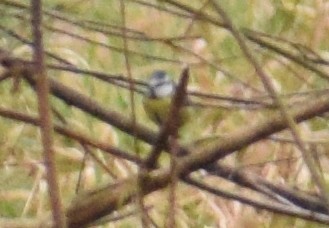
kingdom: Animalia
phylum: Chordata
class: Aves
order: Passeriformes
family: Paridae
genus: Cyanistes
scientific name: Cyanistes caeruleus
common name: Eurasian blue tit
